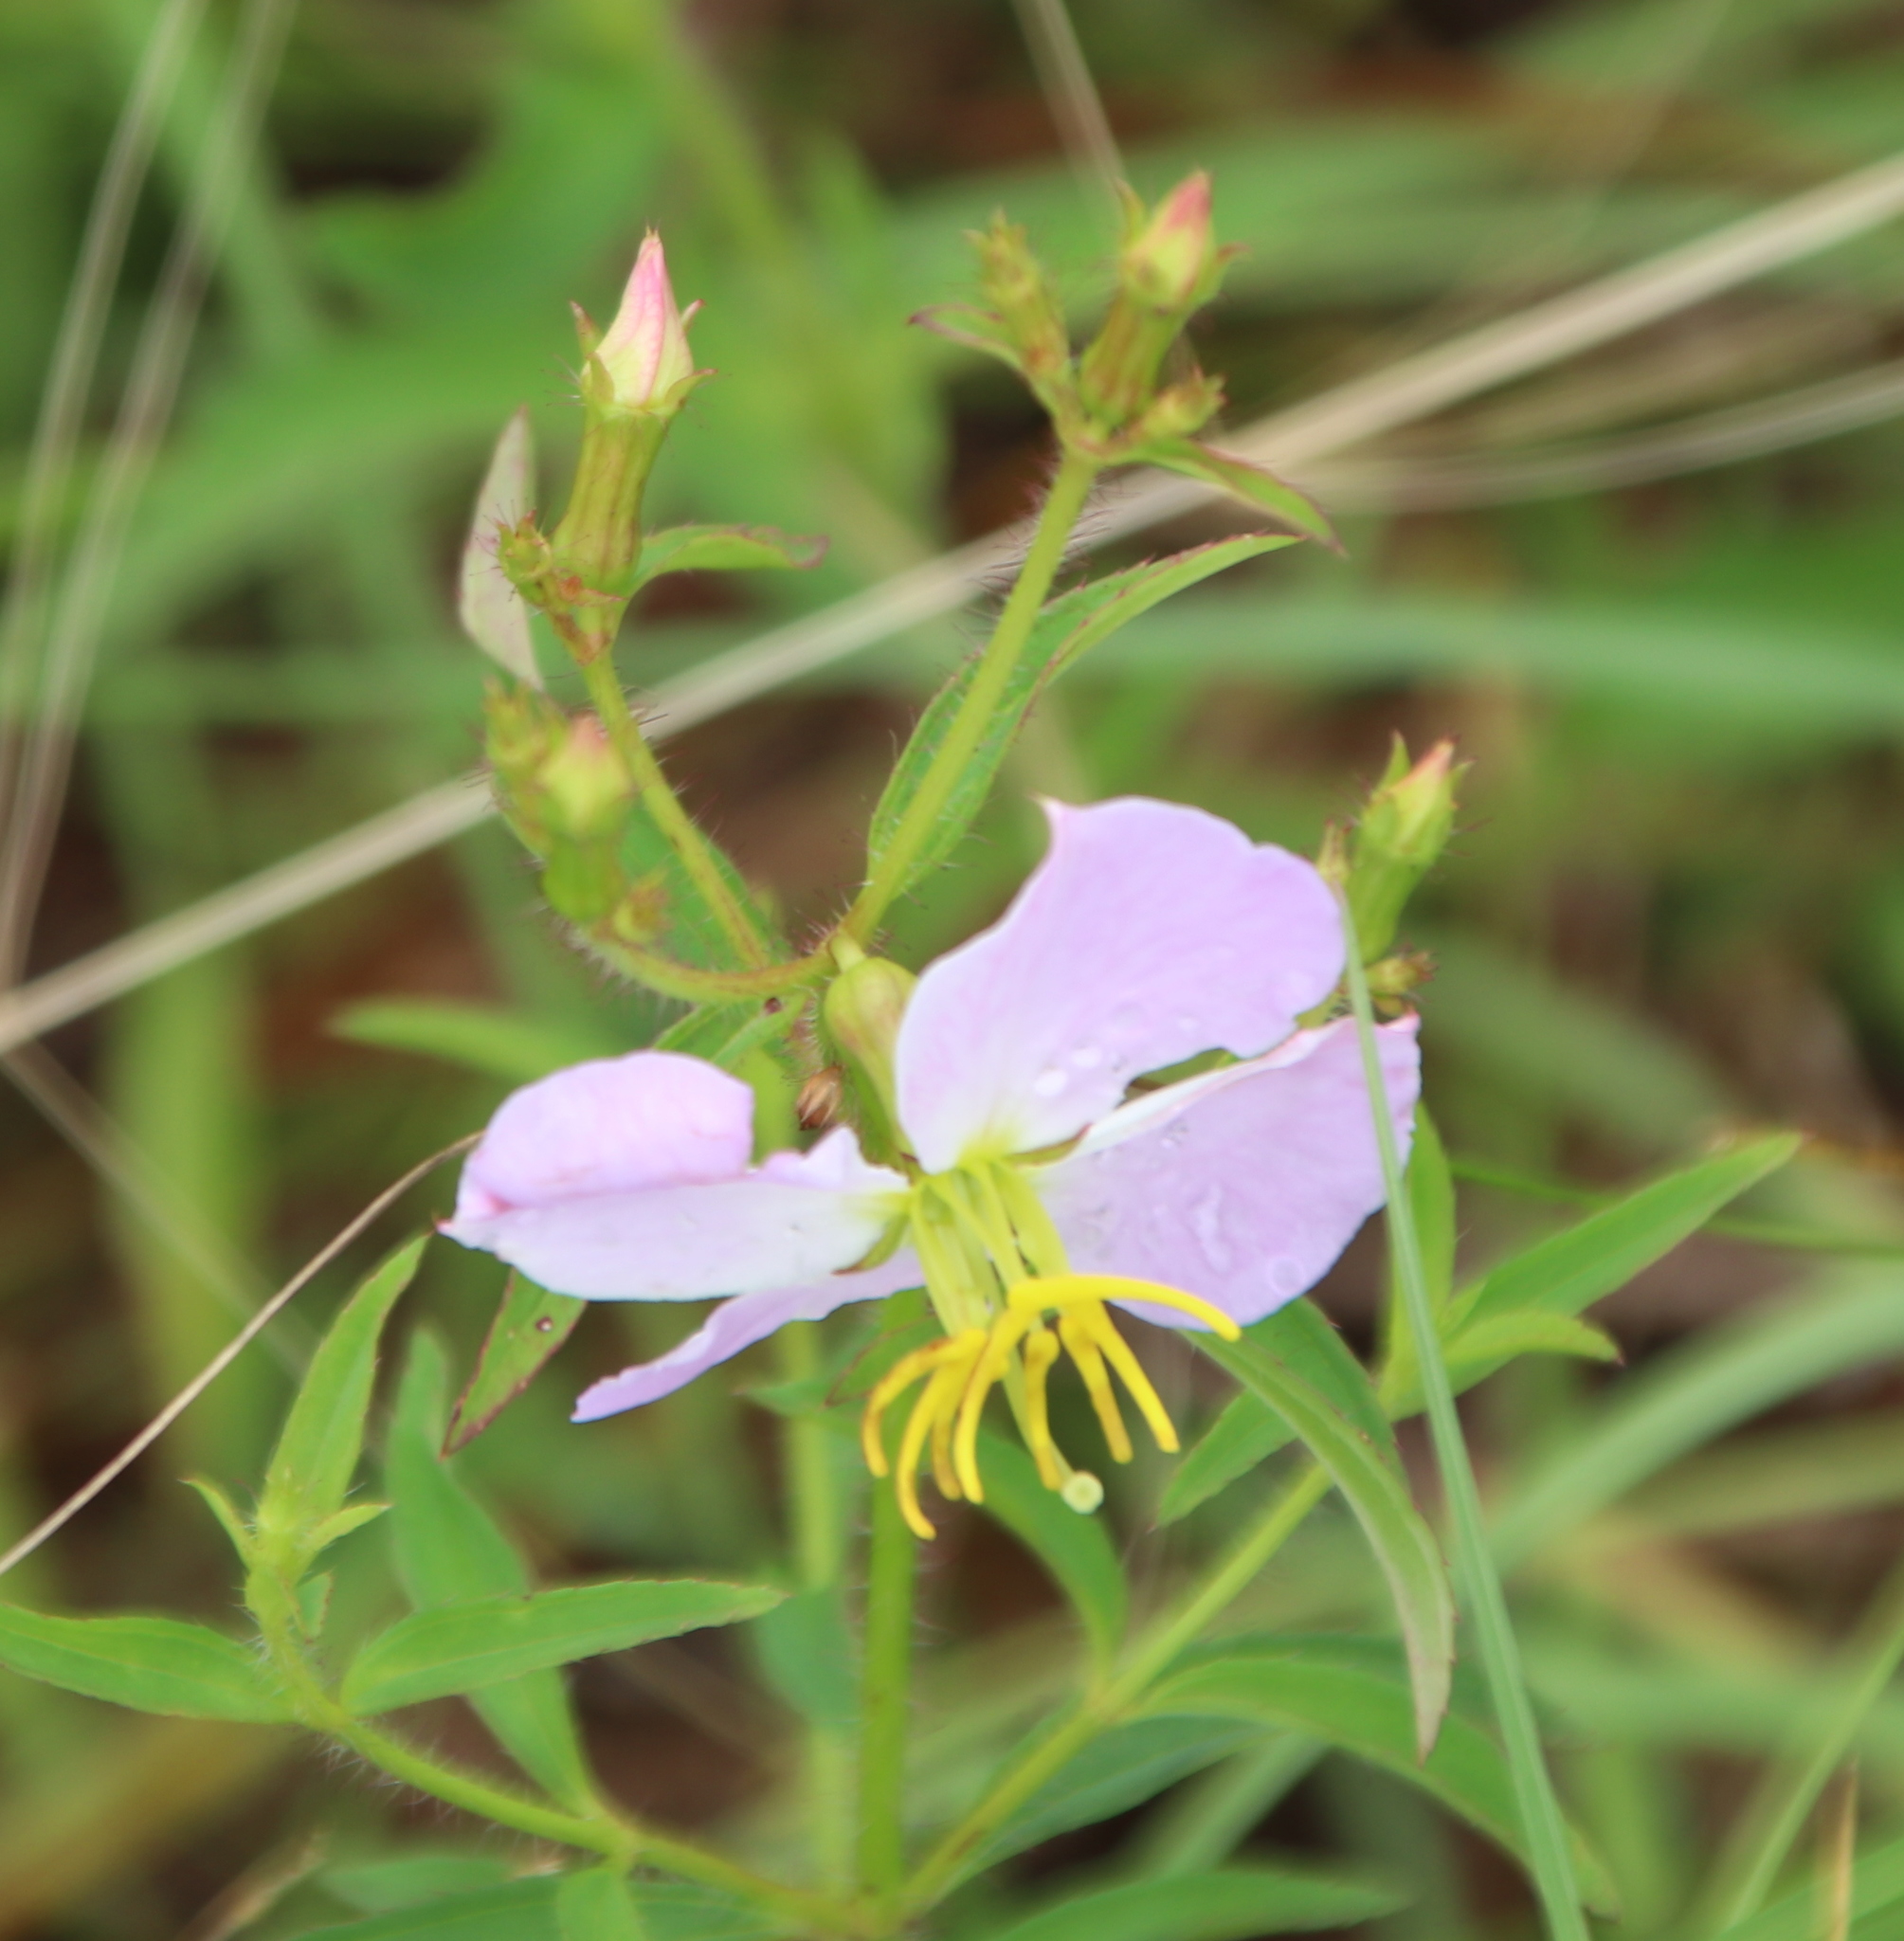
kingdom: Plantae
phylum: Tracheophyta
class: Magnoliopsida
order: Myrtales
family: Melastomataceae
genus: Rhexia
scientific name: Rhexia mariana
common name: Dull meadow-pitcher
